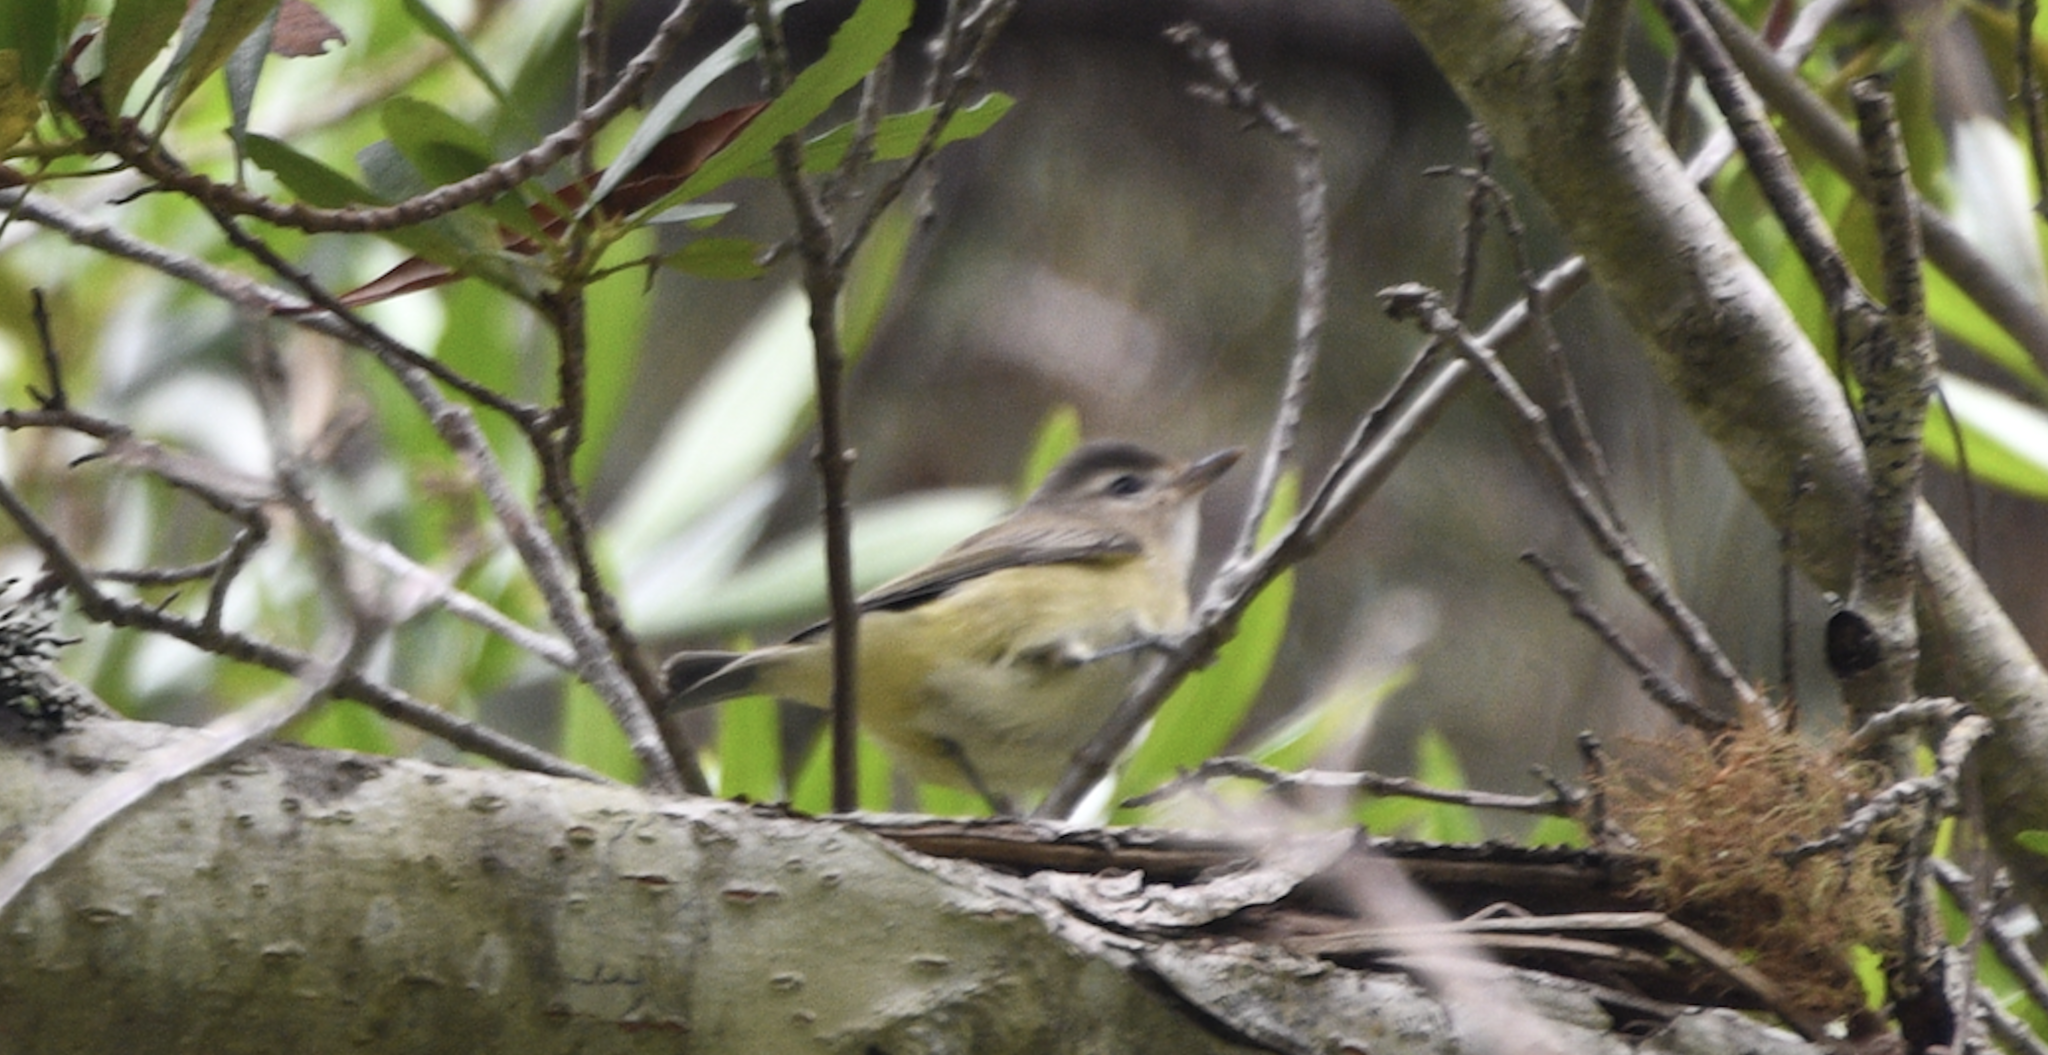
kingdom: Animalia
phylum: Chordata
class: Aves
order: Passeriformes
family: Vireonidae
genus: Vireo
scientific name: Vireo gilvus
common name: Warbling vireo
